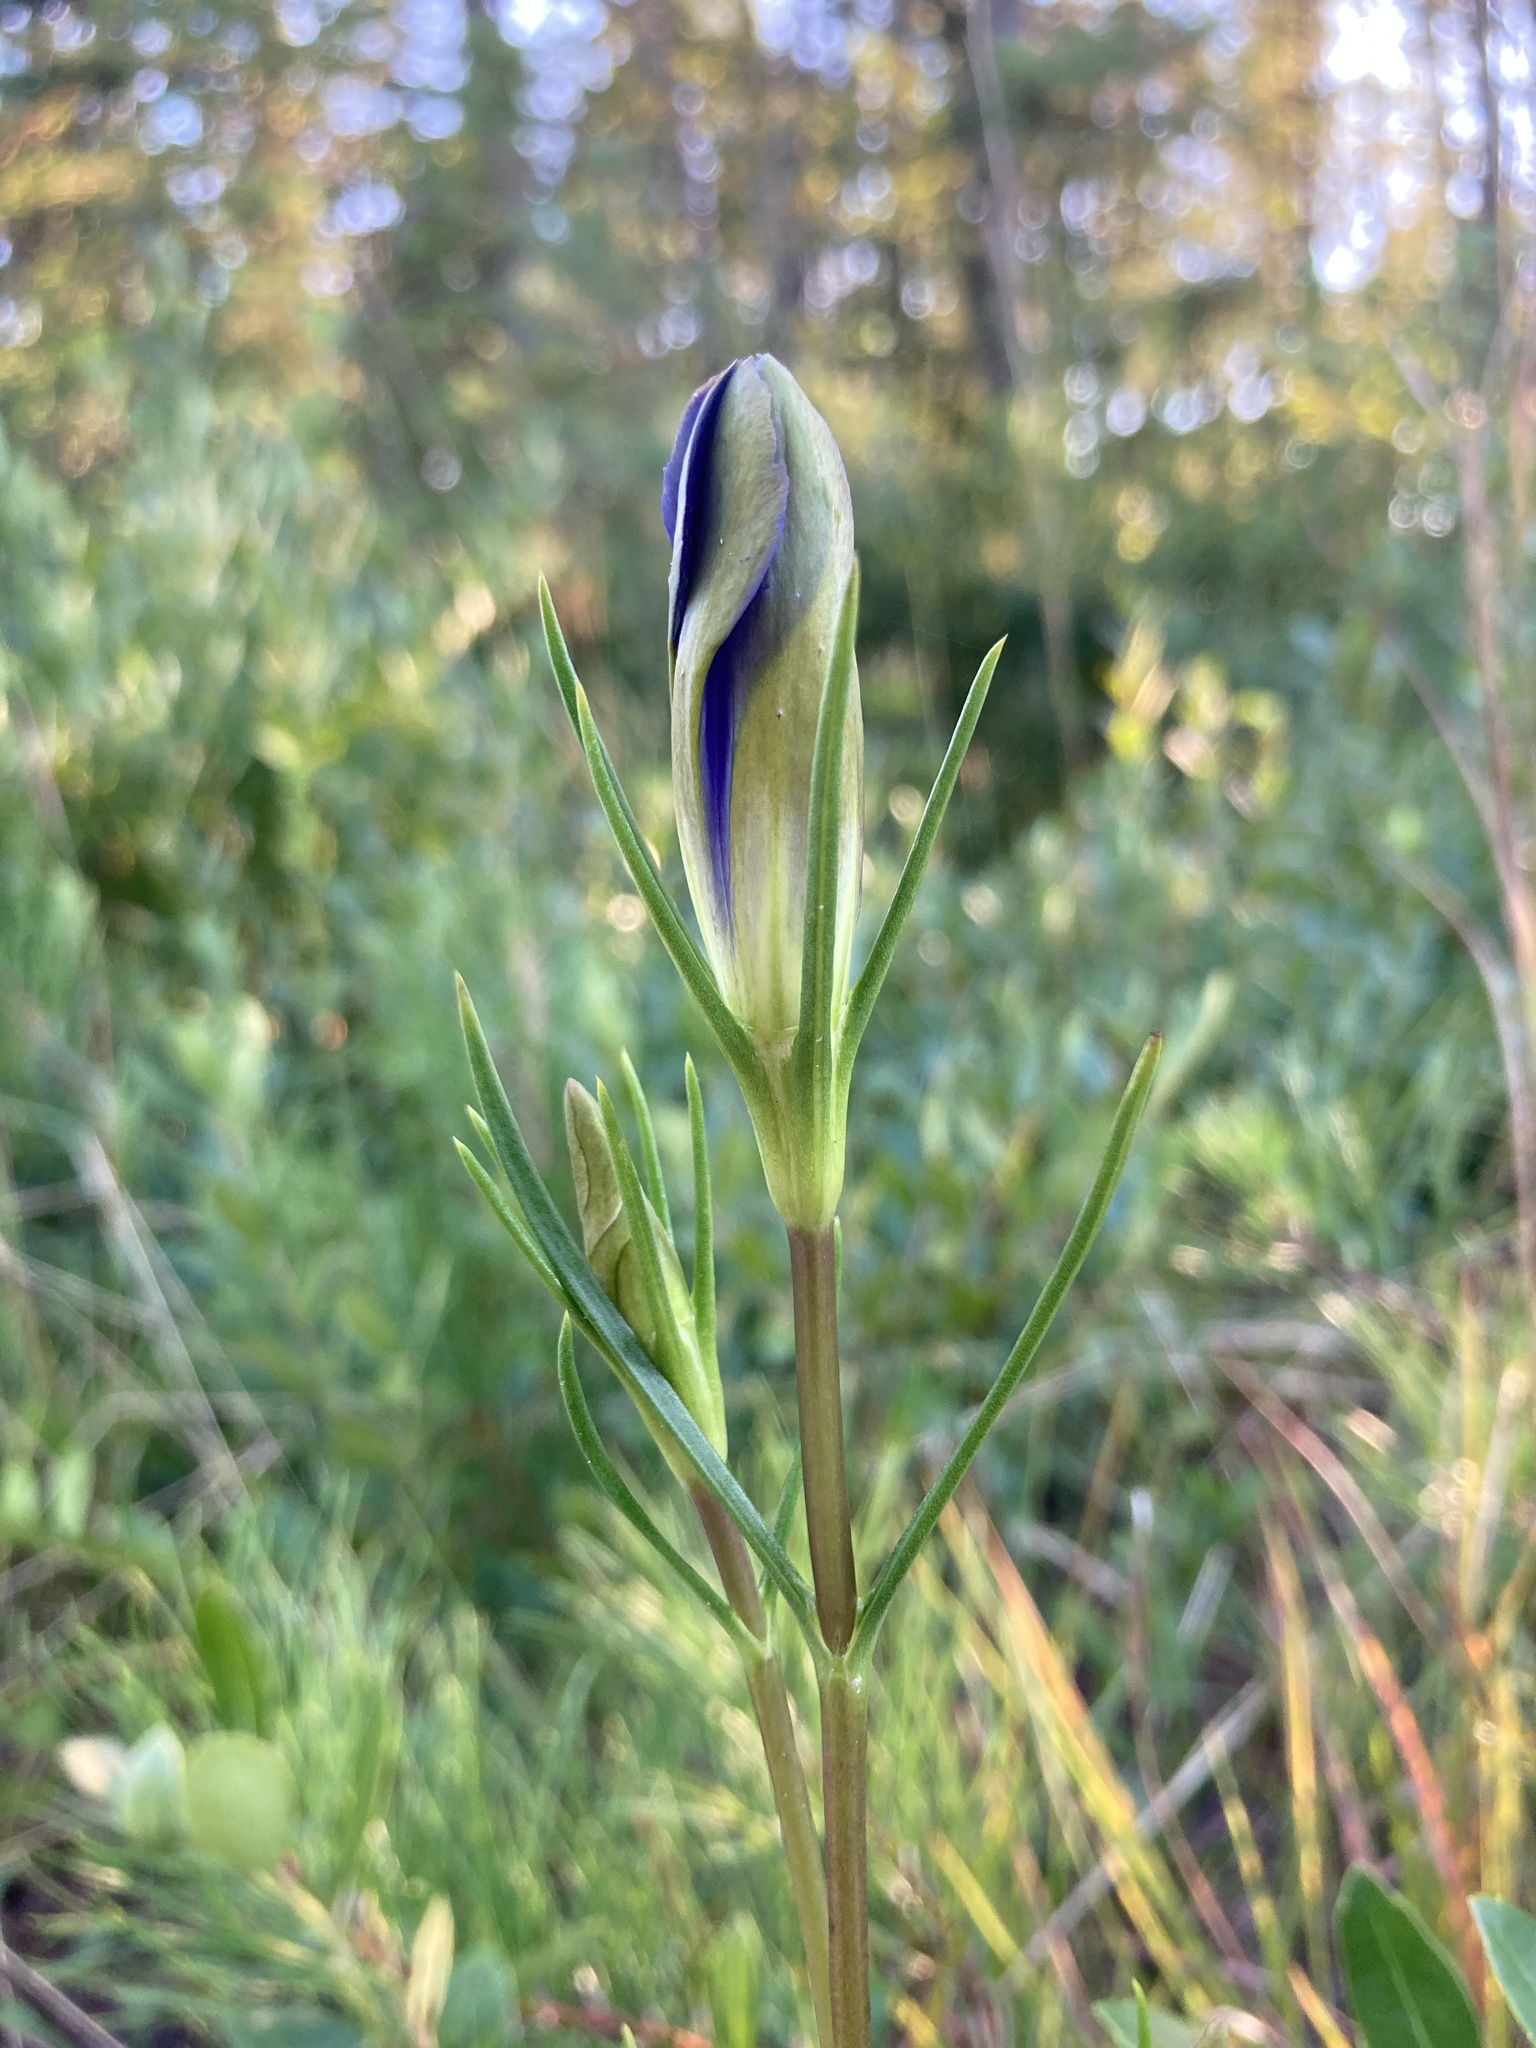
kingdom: Plantae
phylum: Tracheophyta
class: Magnoliopsida
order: Gentianales
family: Gentianaceae
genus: Gentiana
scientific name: Gentiana autumnalis
